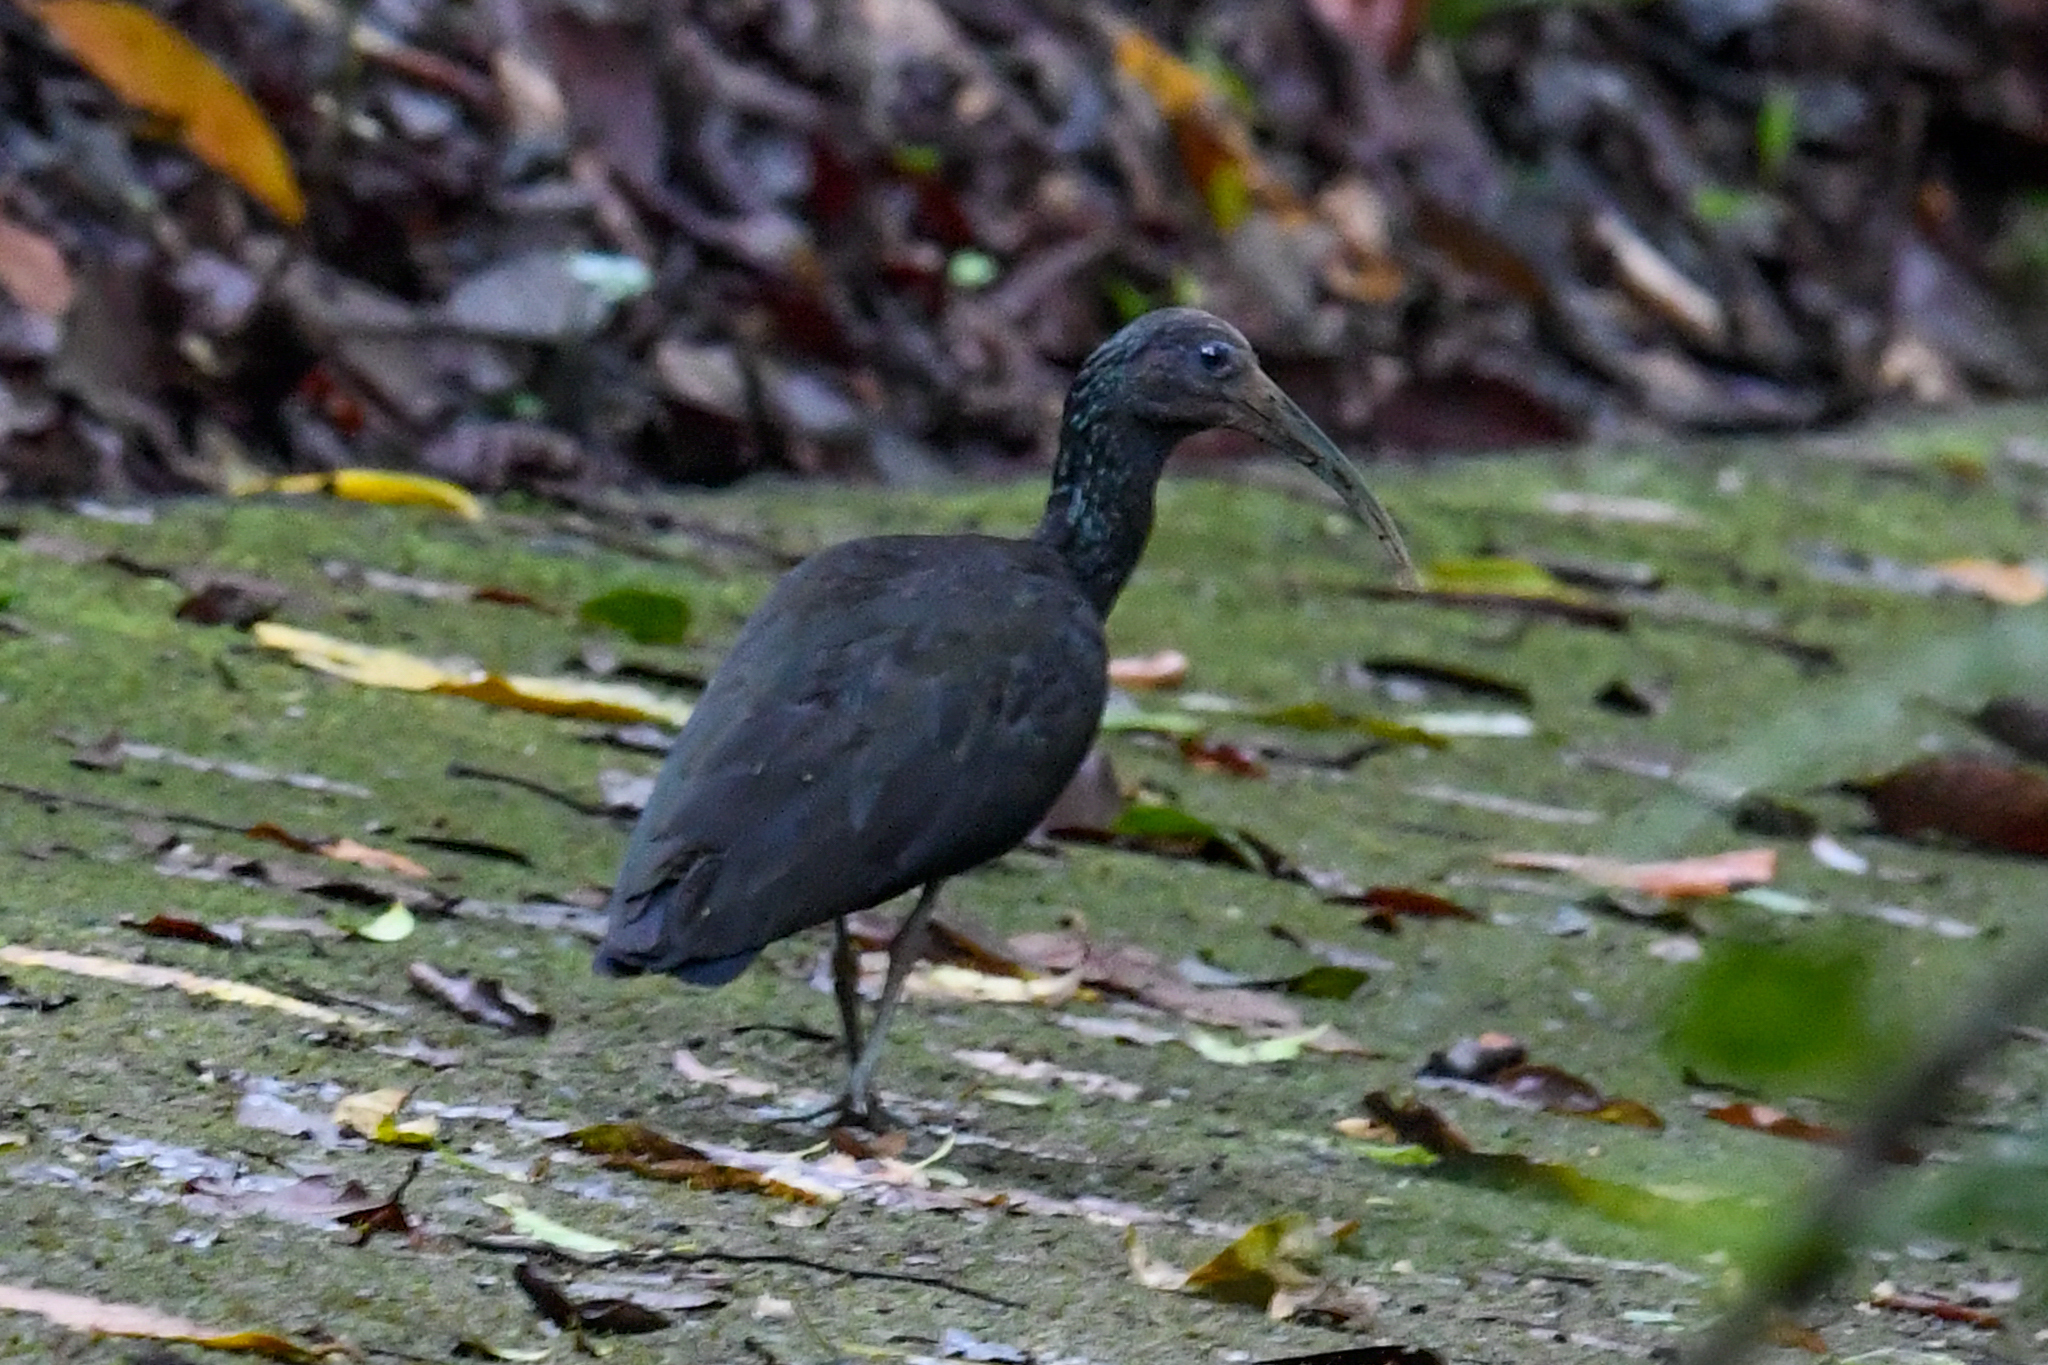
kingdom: Animalia
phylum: Chordata
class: Aves
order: Pelecaniformes
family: Threskiornithidae
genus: Mesembrinibis
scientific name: Mesembrinibis cayennensis
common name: Green ibis
